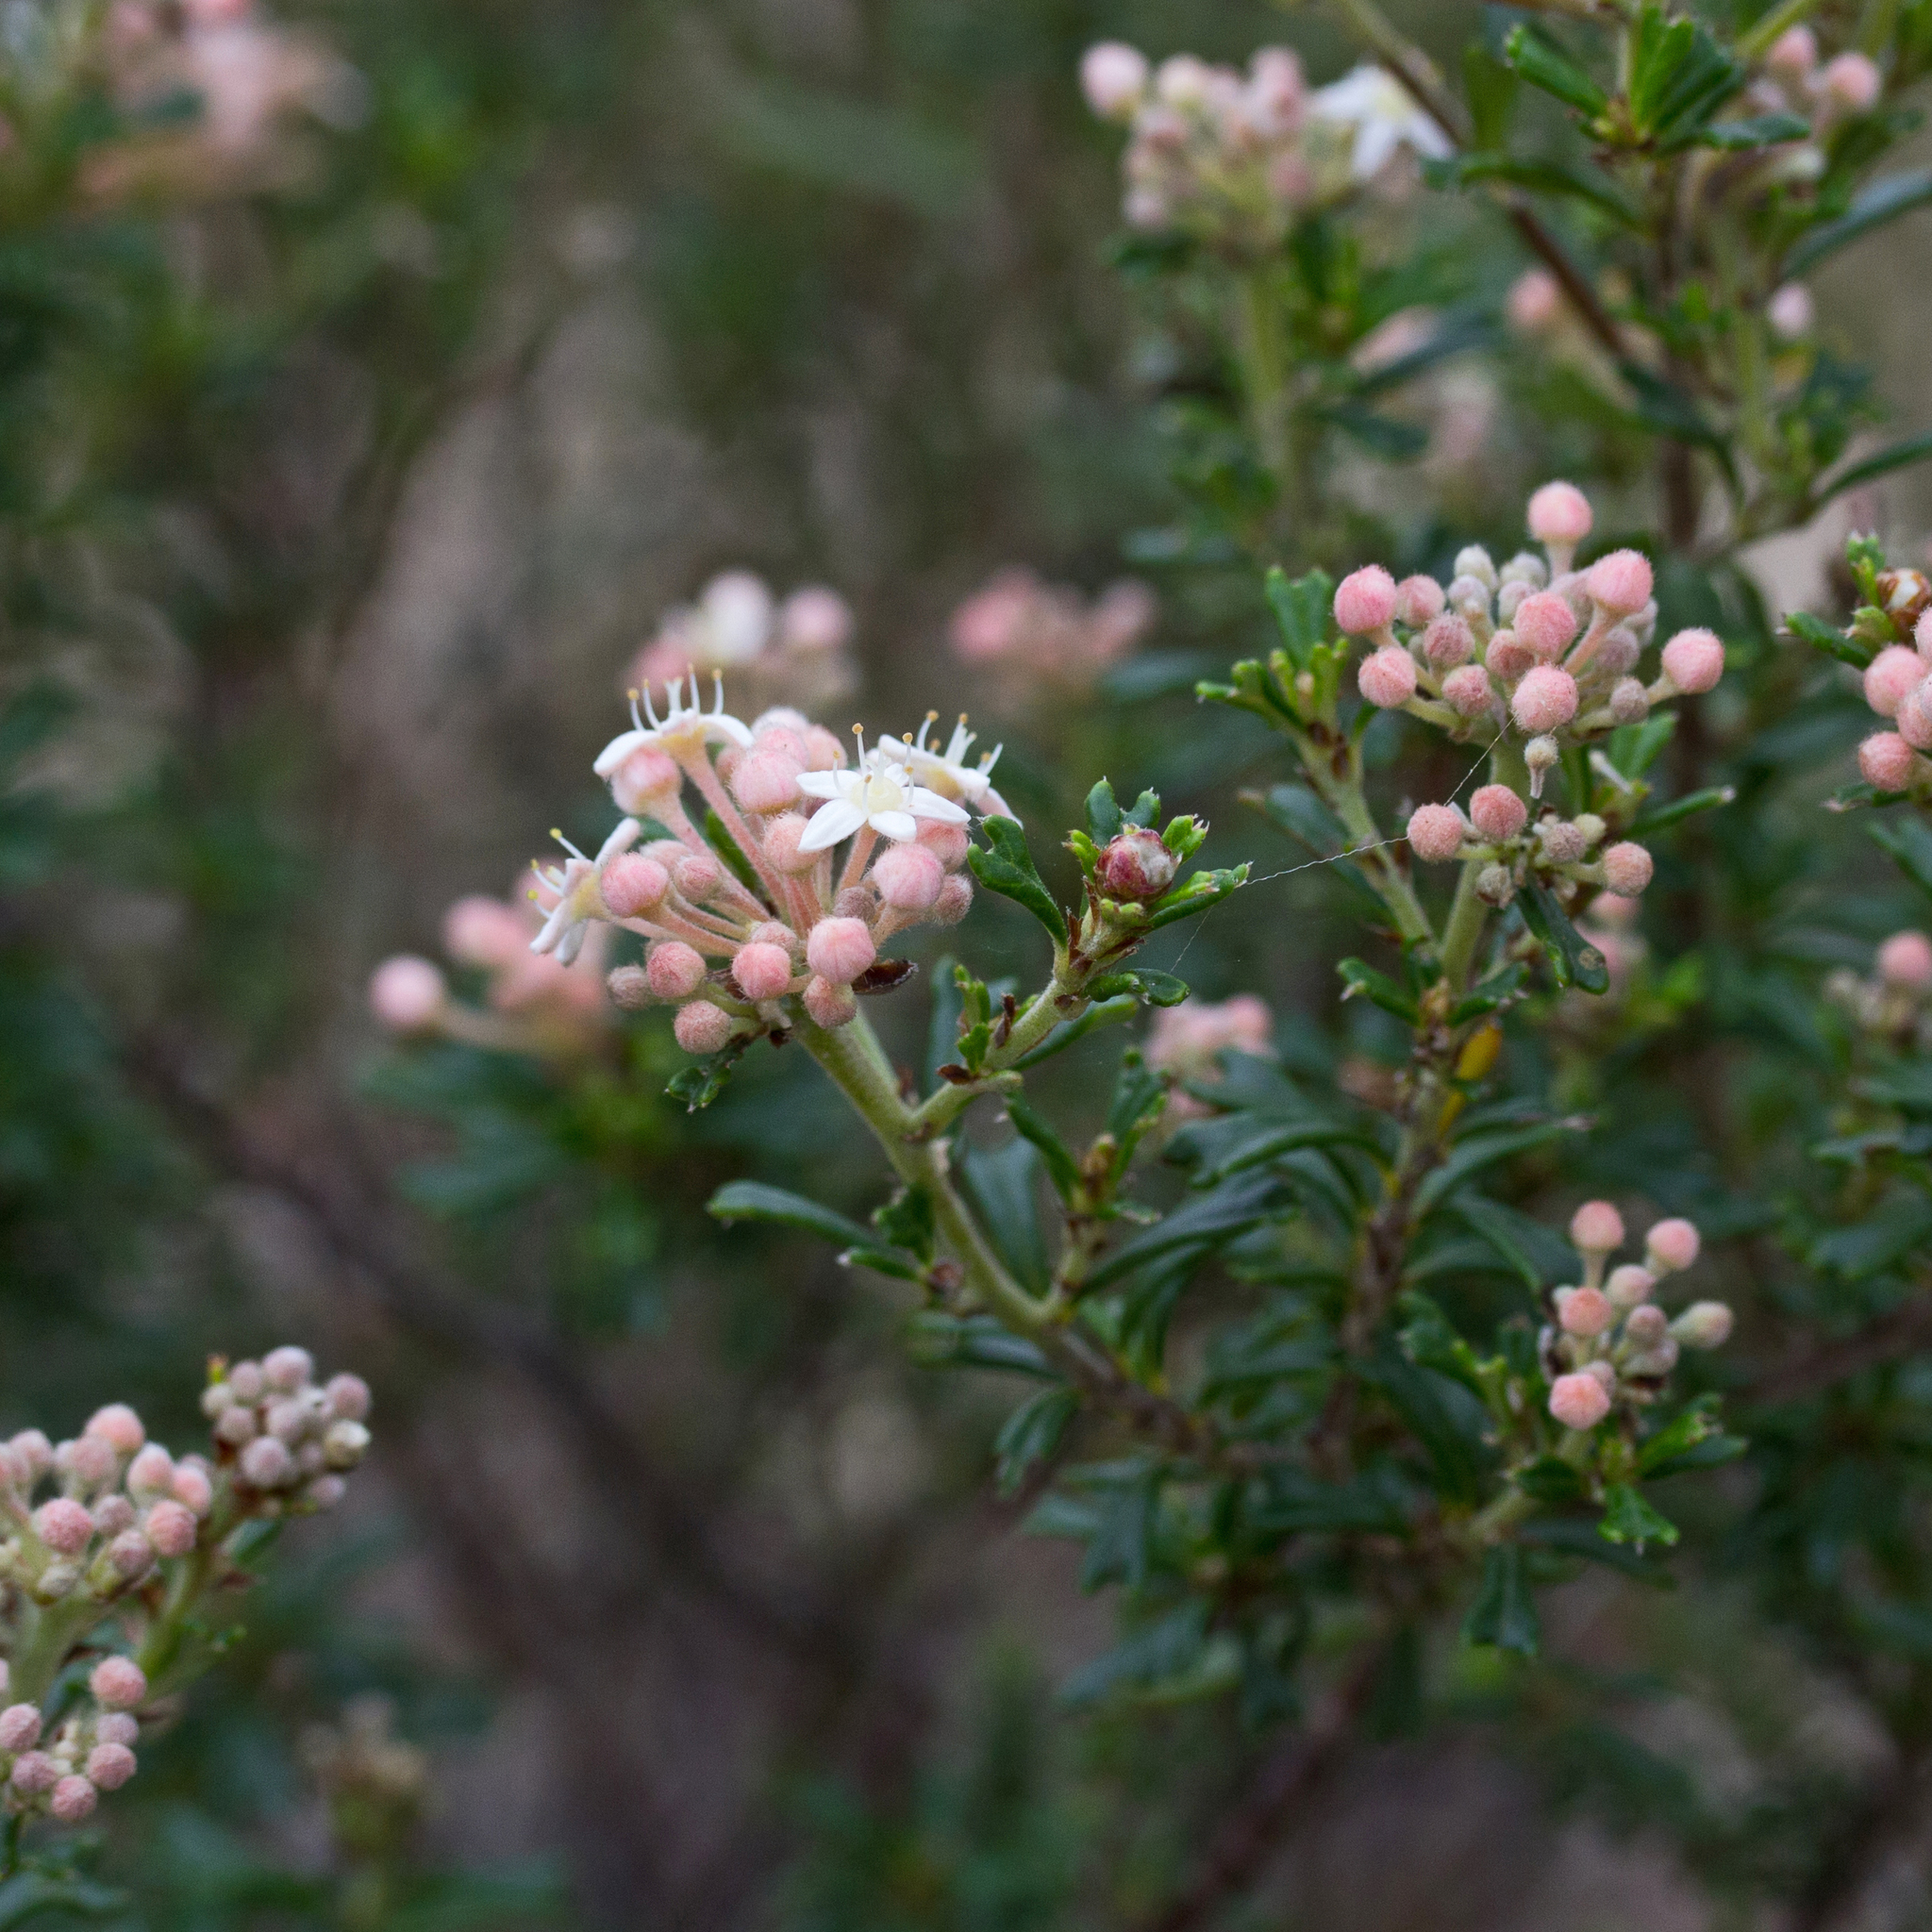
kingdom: Plantae
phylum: Tracheophyta
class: Magnoliopsida
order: Rosales
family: Rhamnaceae
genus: Pomaderris
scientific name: Pomaderris obcordata
